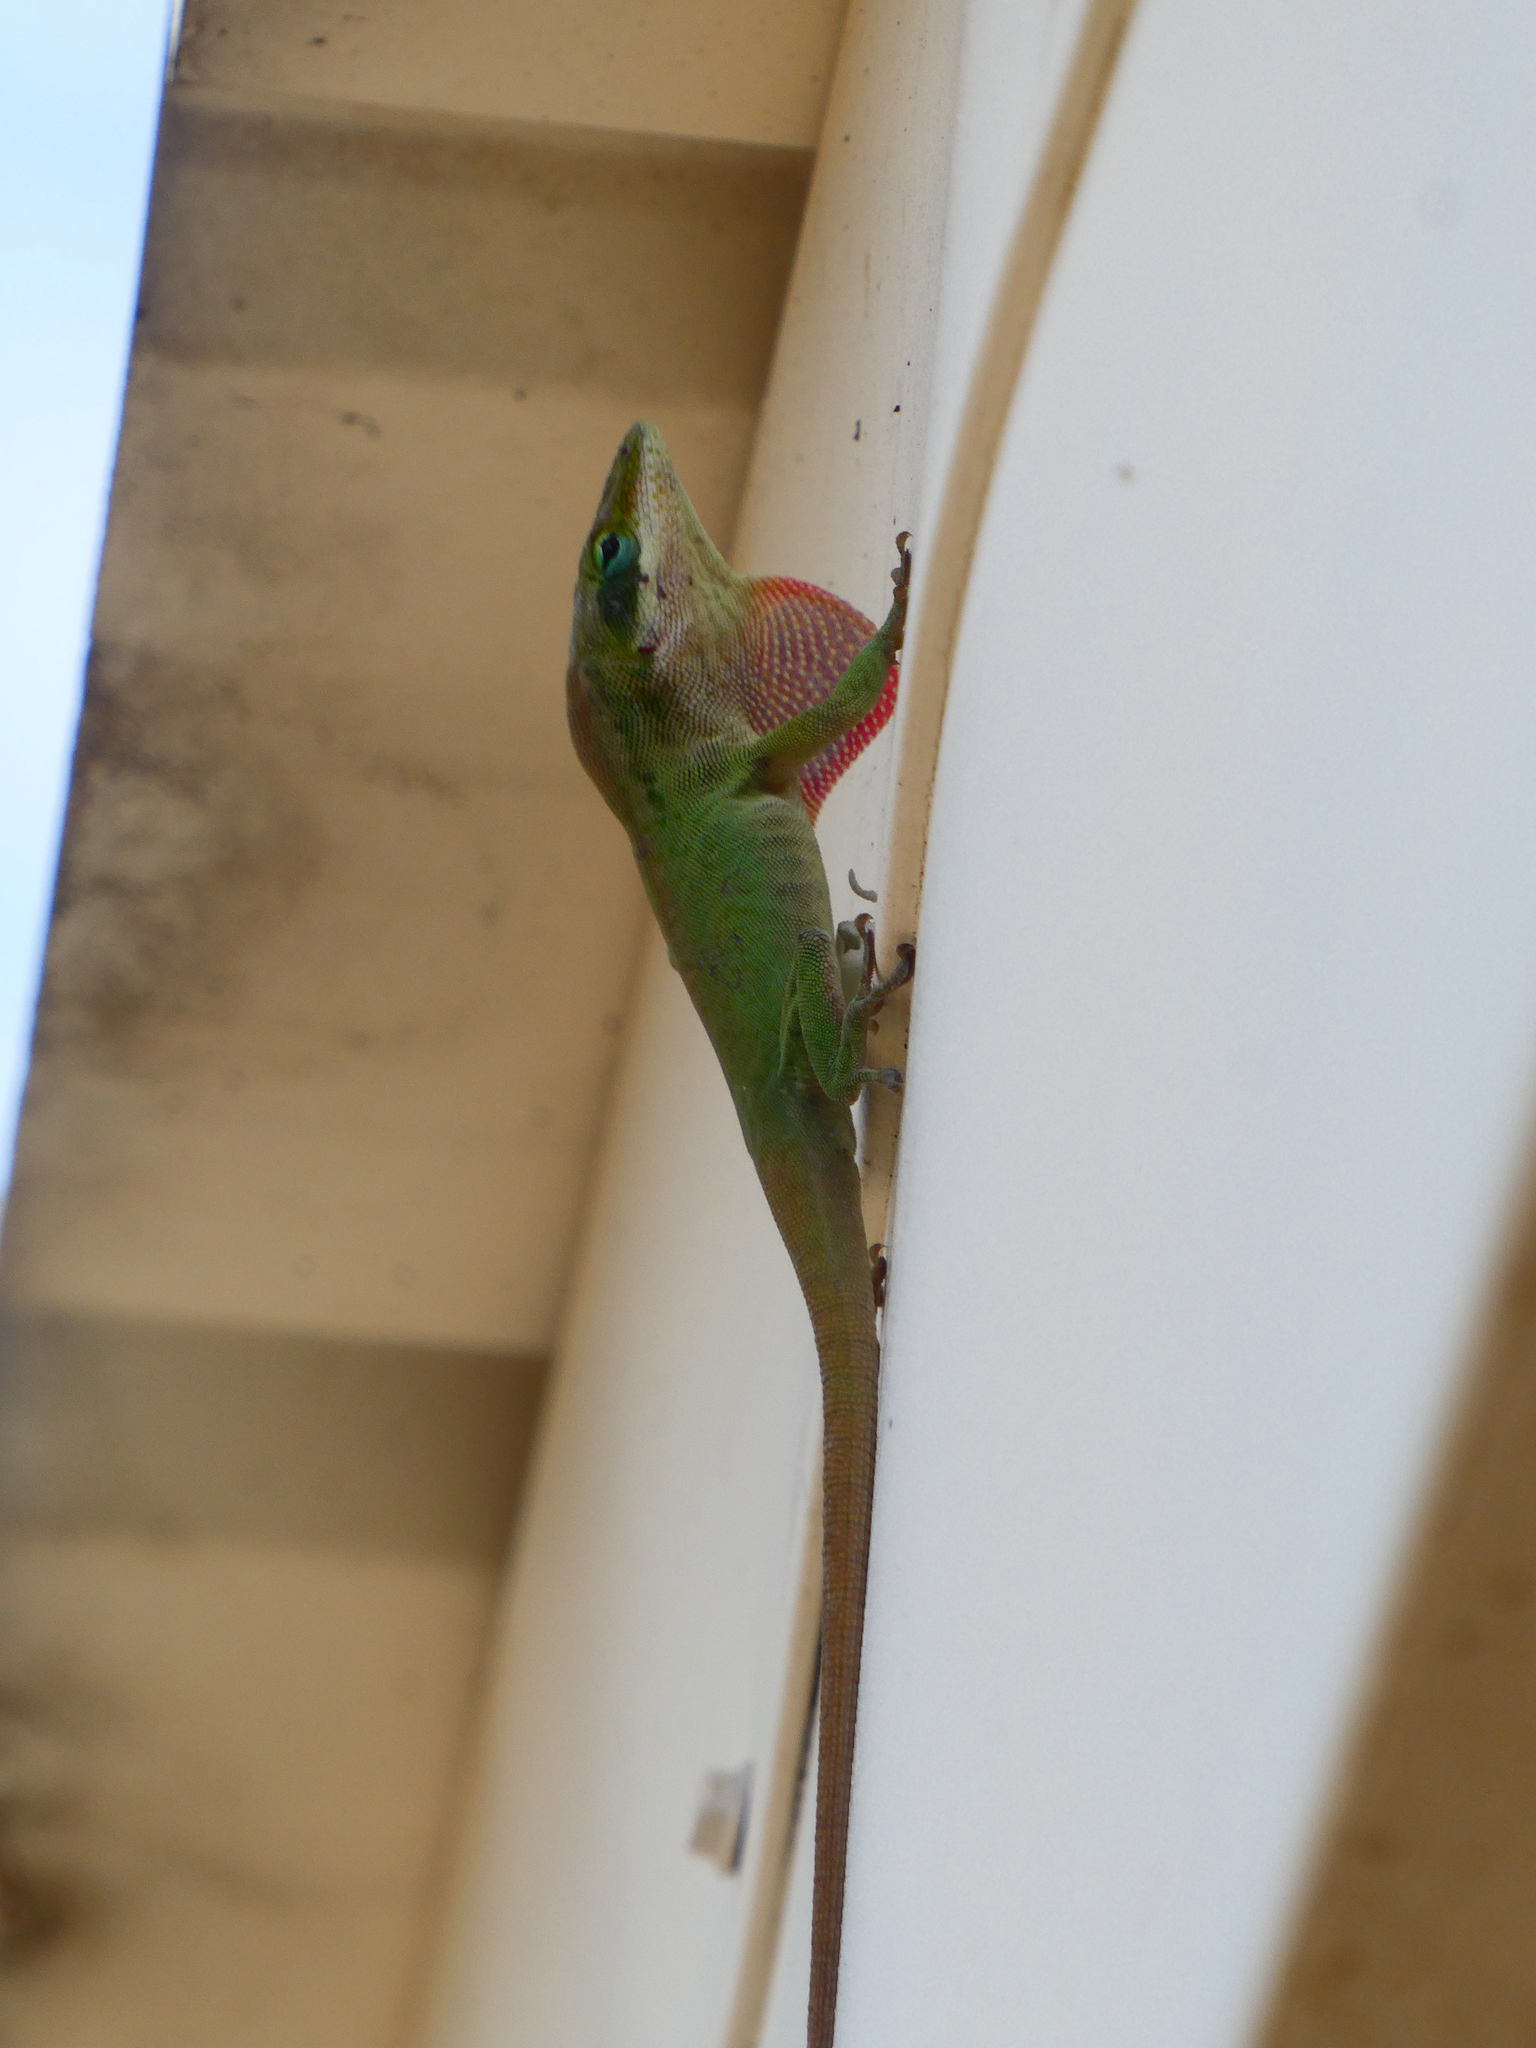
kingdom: Animalia
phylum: Chordata
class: Squamata
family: Dactyloidae
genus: Anolis
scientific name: Anolis carolinensis
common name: Green anole
